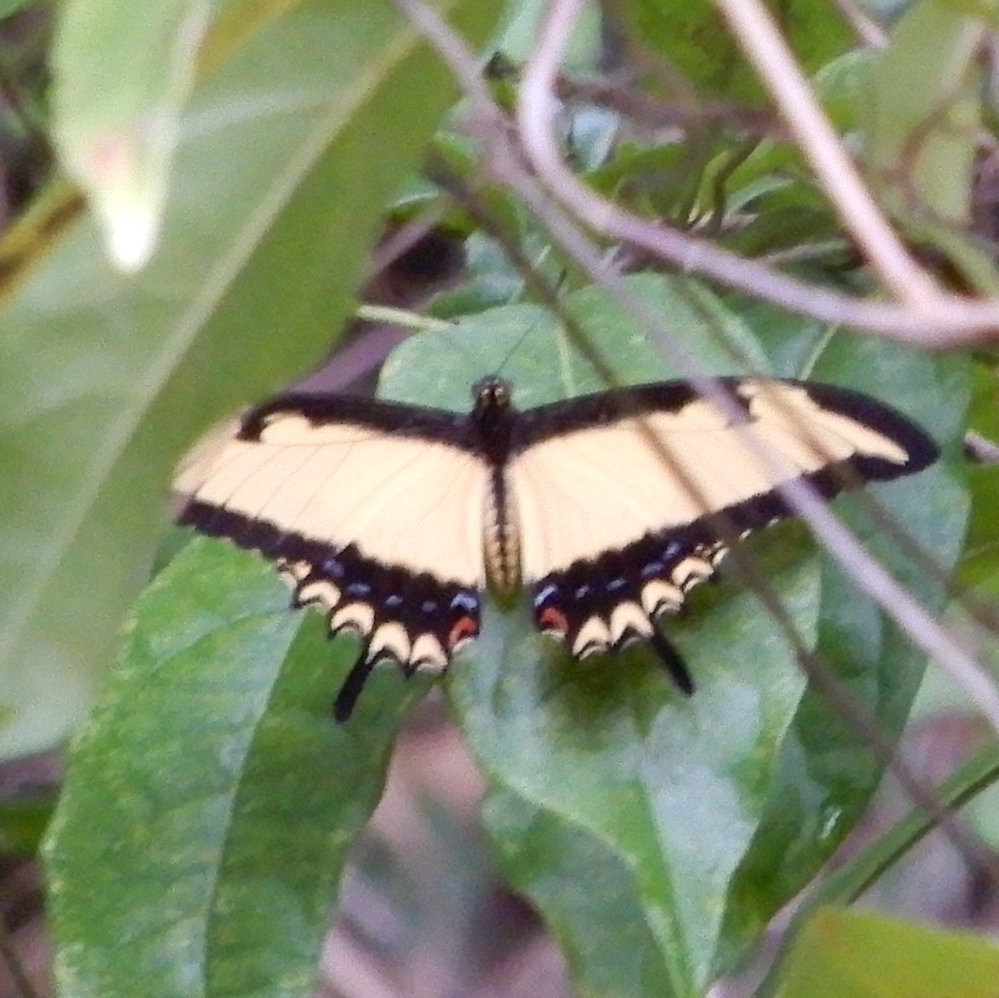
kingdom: Animalia
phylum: Arthropoda
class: Insecta
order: Lepidoptera
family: Papilionidae
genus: Heraclides
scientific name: Heraclides
